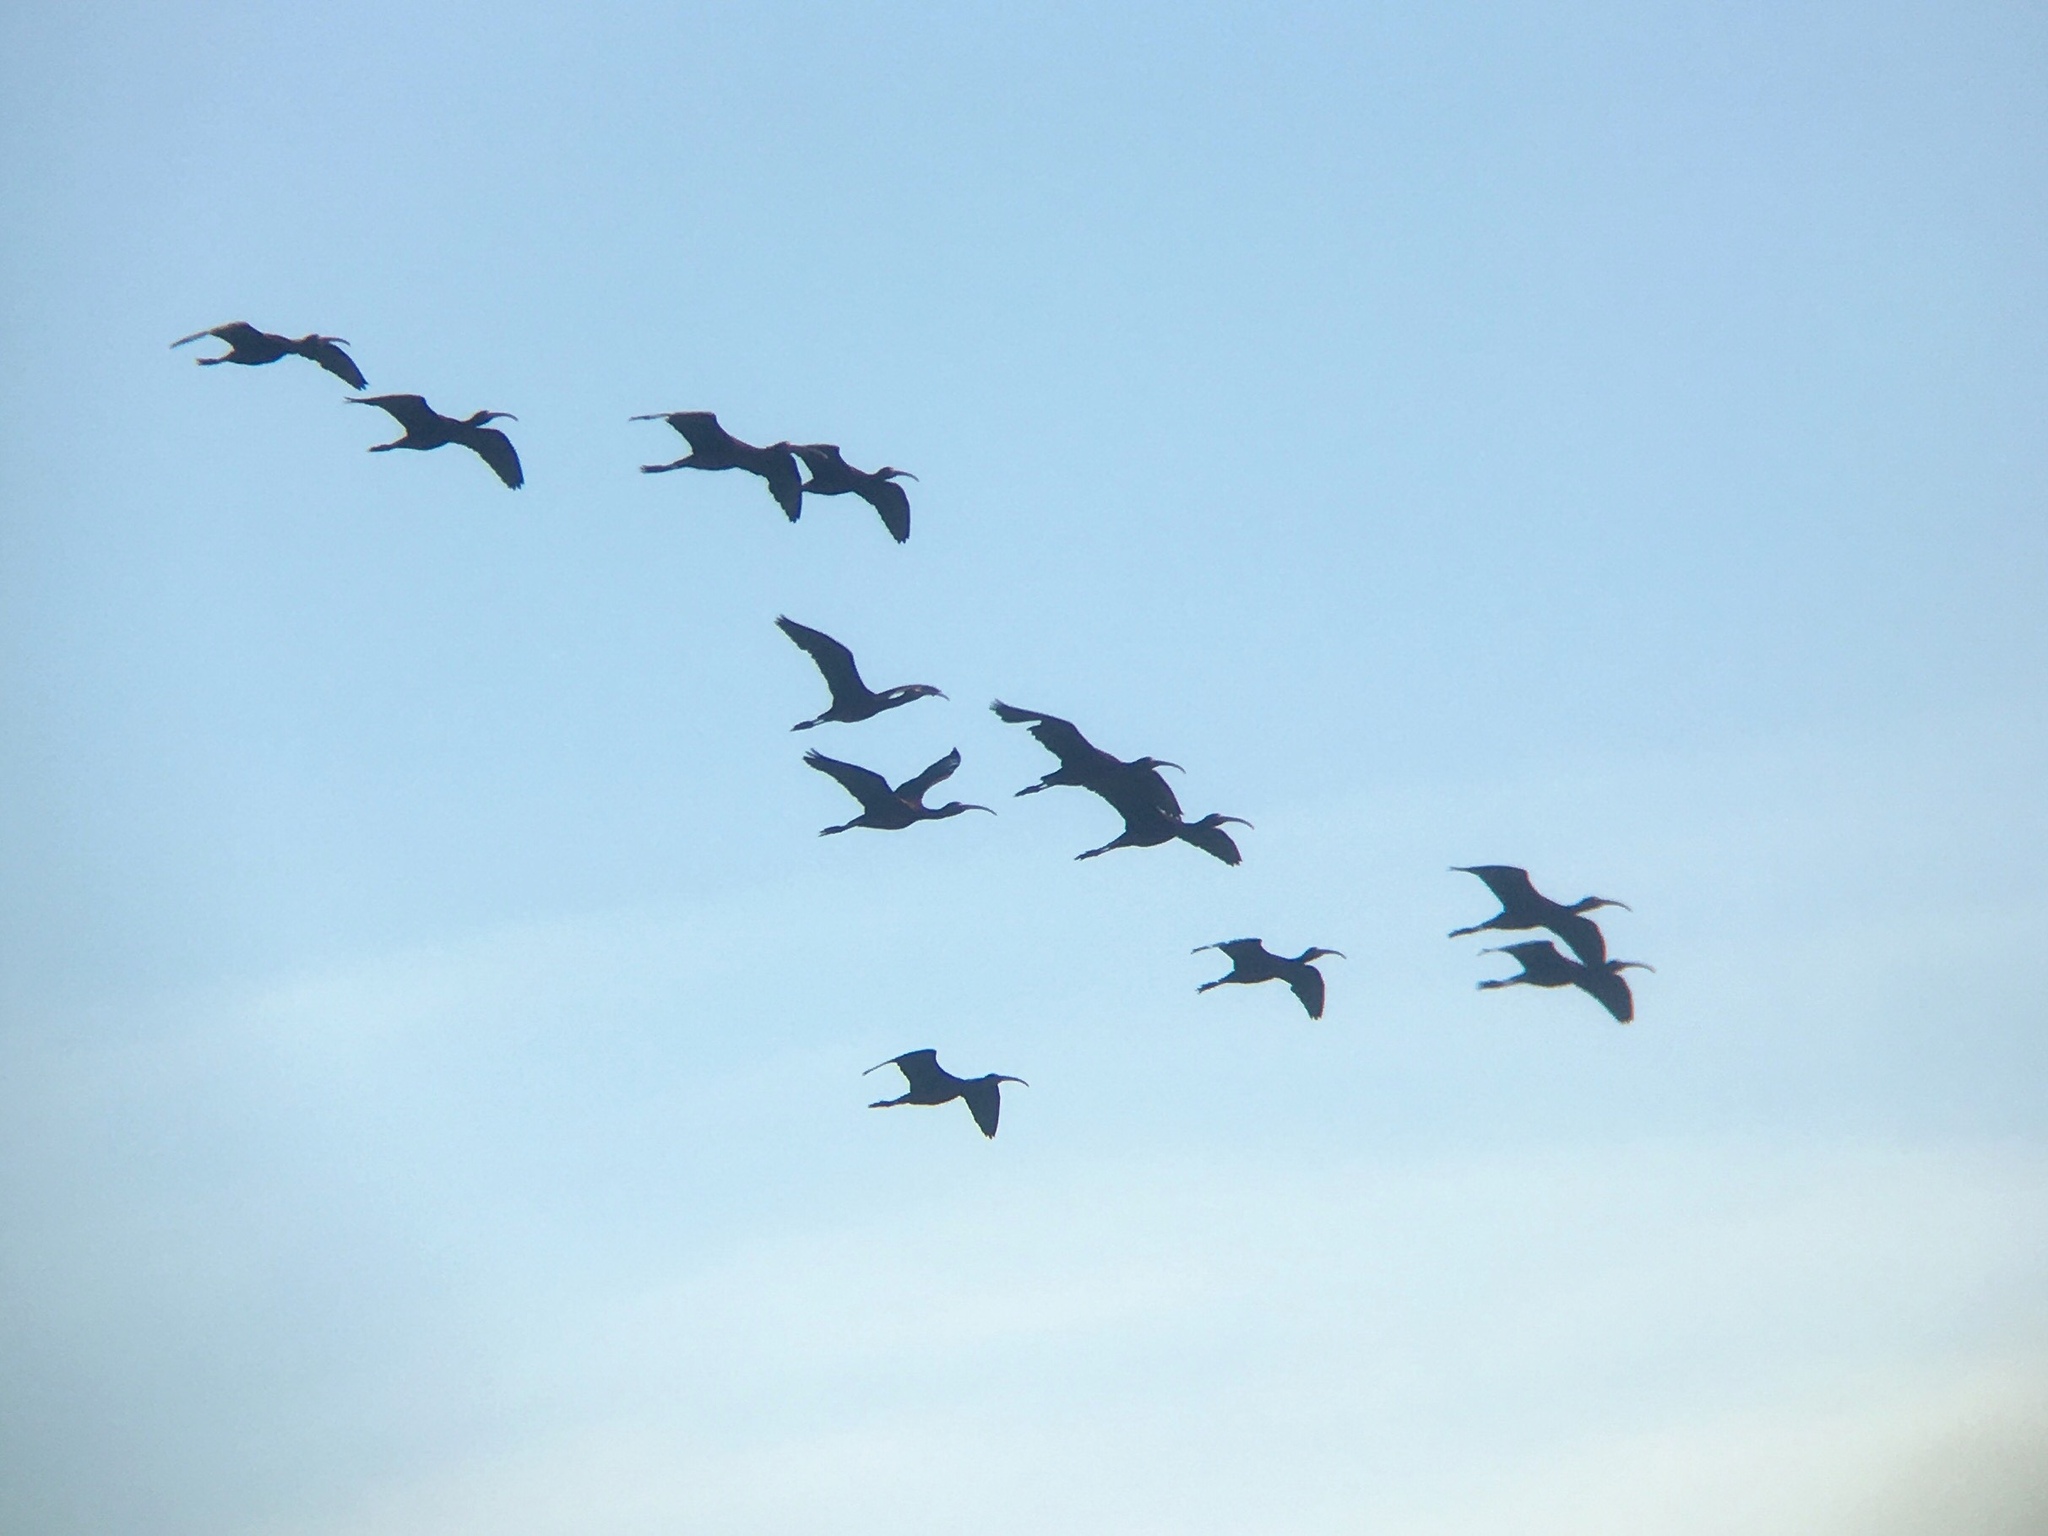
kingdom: Animalia
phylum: Chordata
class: Aves
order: Pelecaniformes
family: Threskiornithidae
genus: Plegadis
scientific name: Plegadis chihi
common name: White-faced ibis
